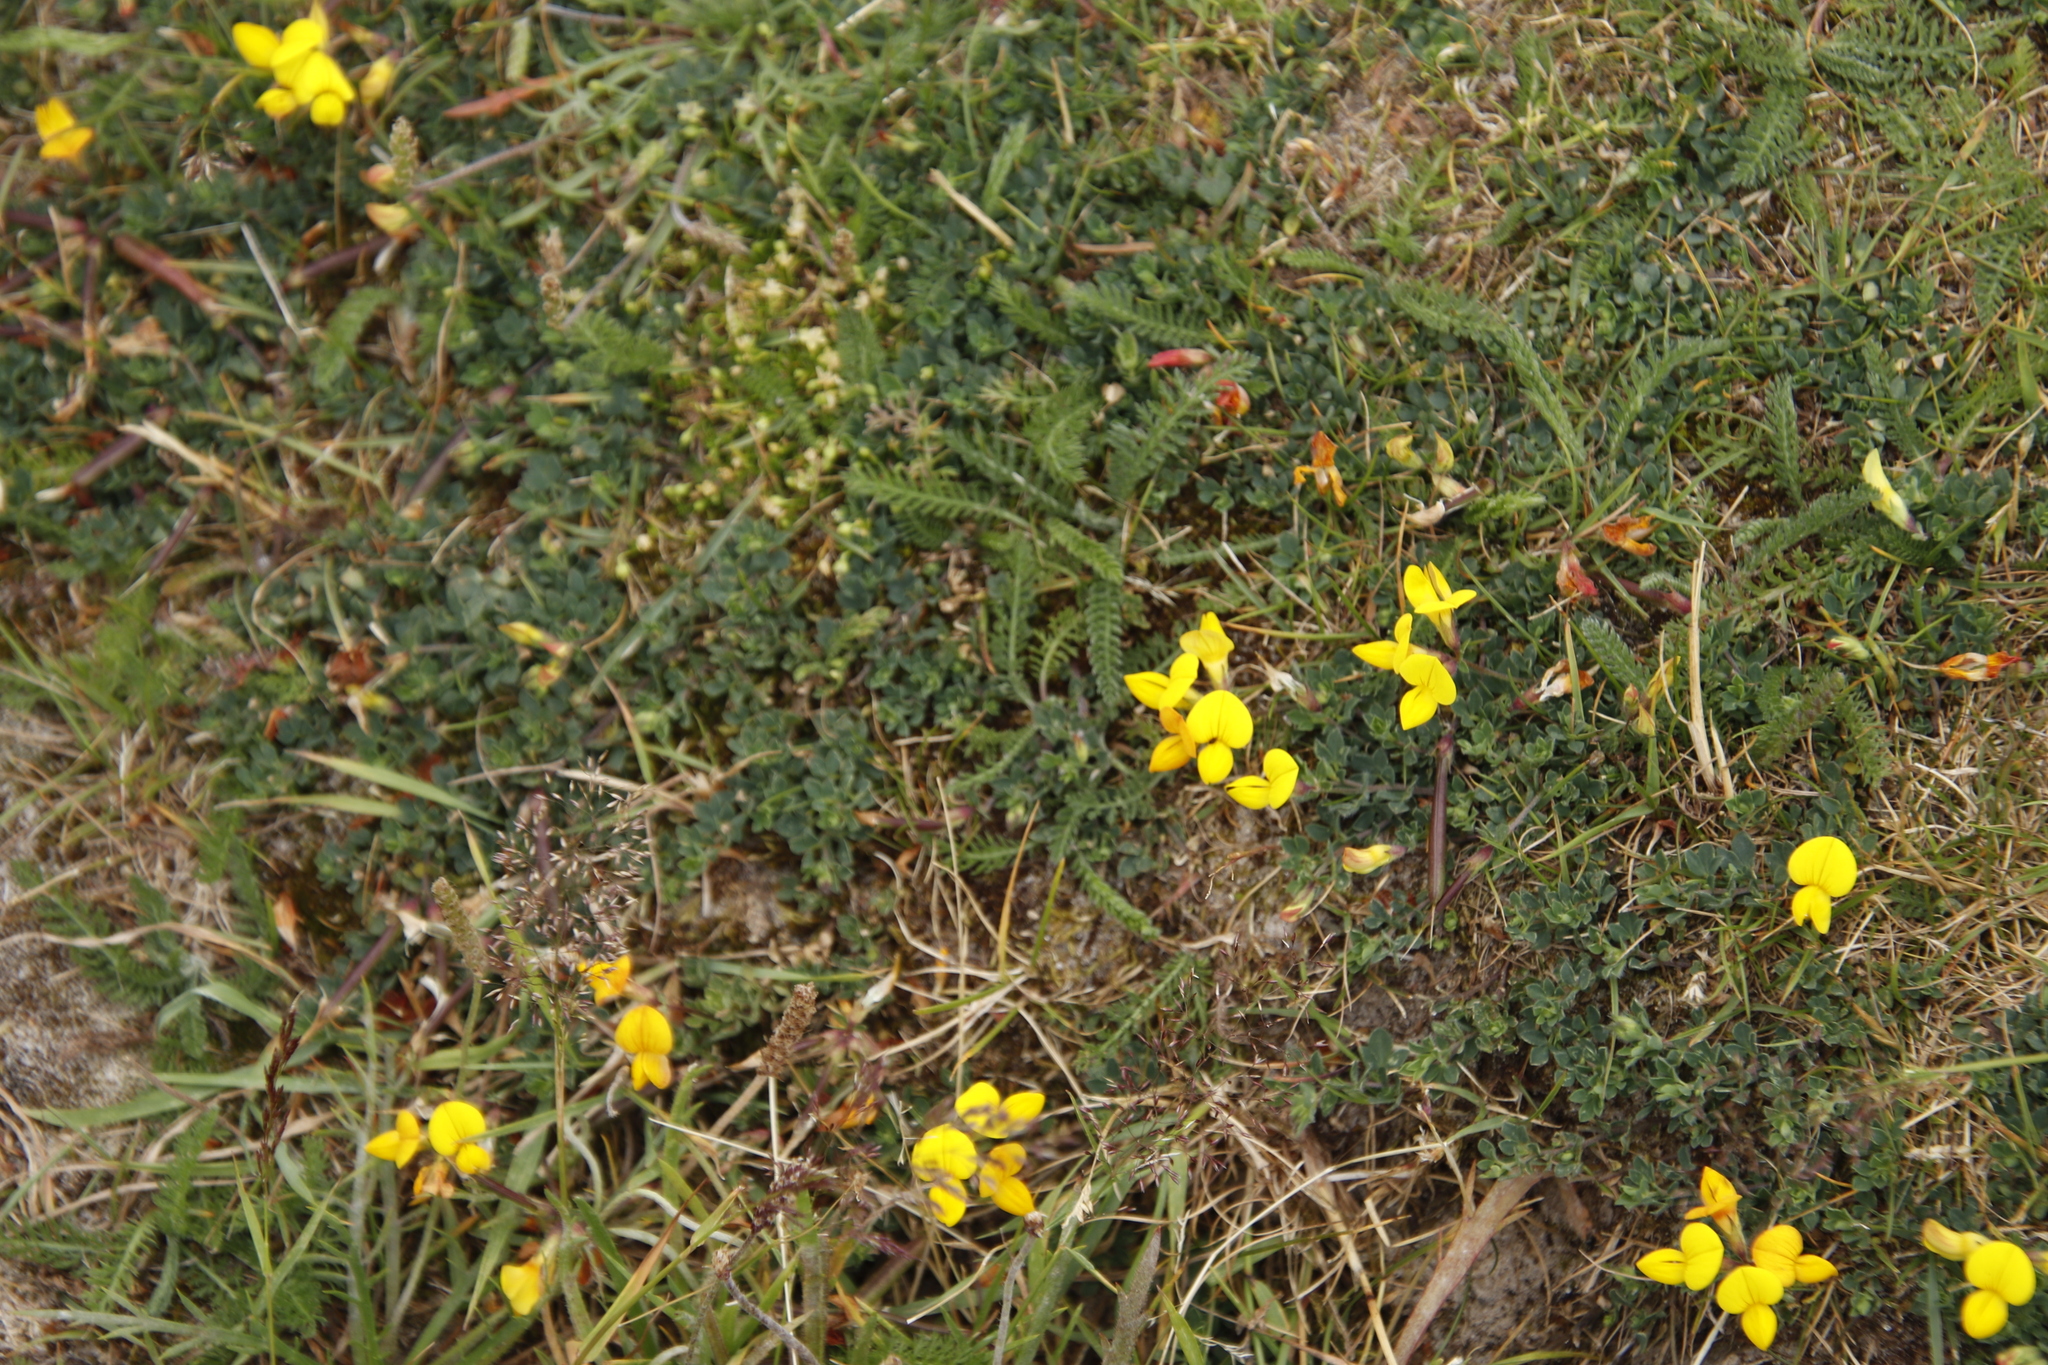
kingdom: Plantae
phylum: Tracheophyta
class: Magnoliopsida
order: Fabales
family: Fabaceae
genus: Lotus
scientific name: Lotus corniculatus
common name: Common bird's-foot-trefoil
